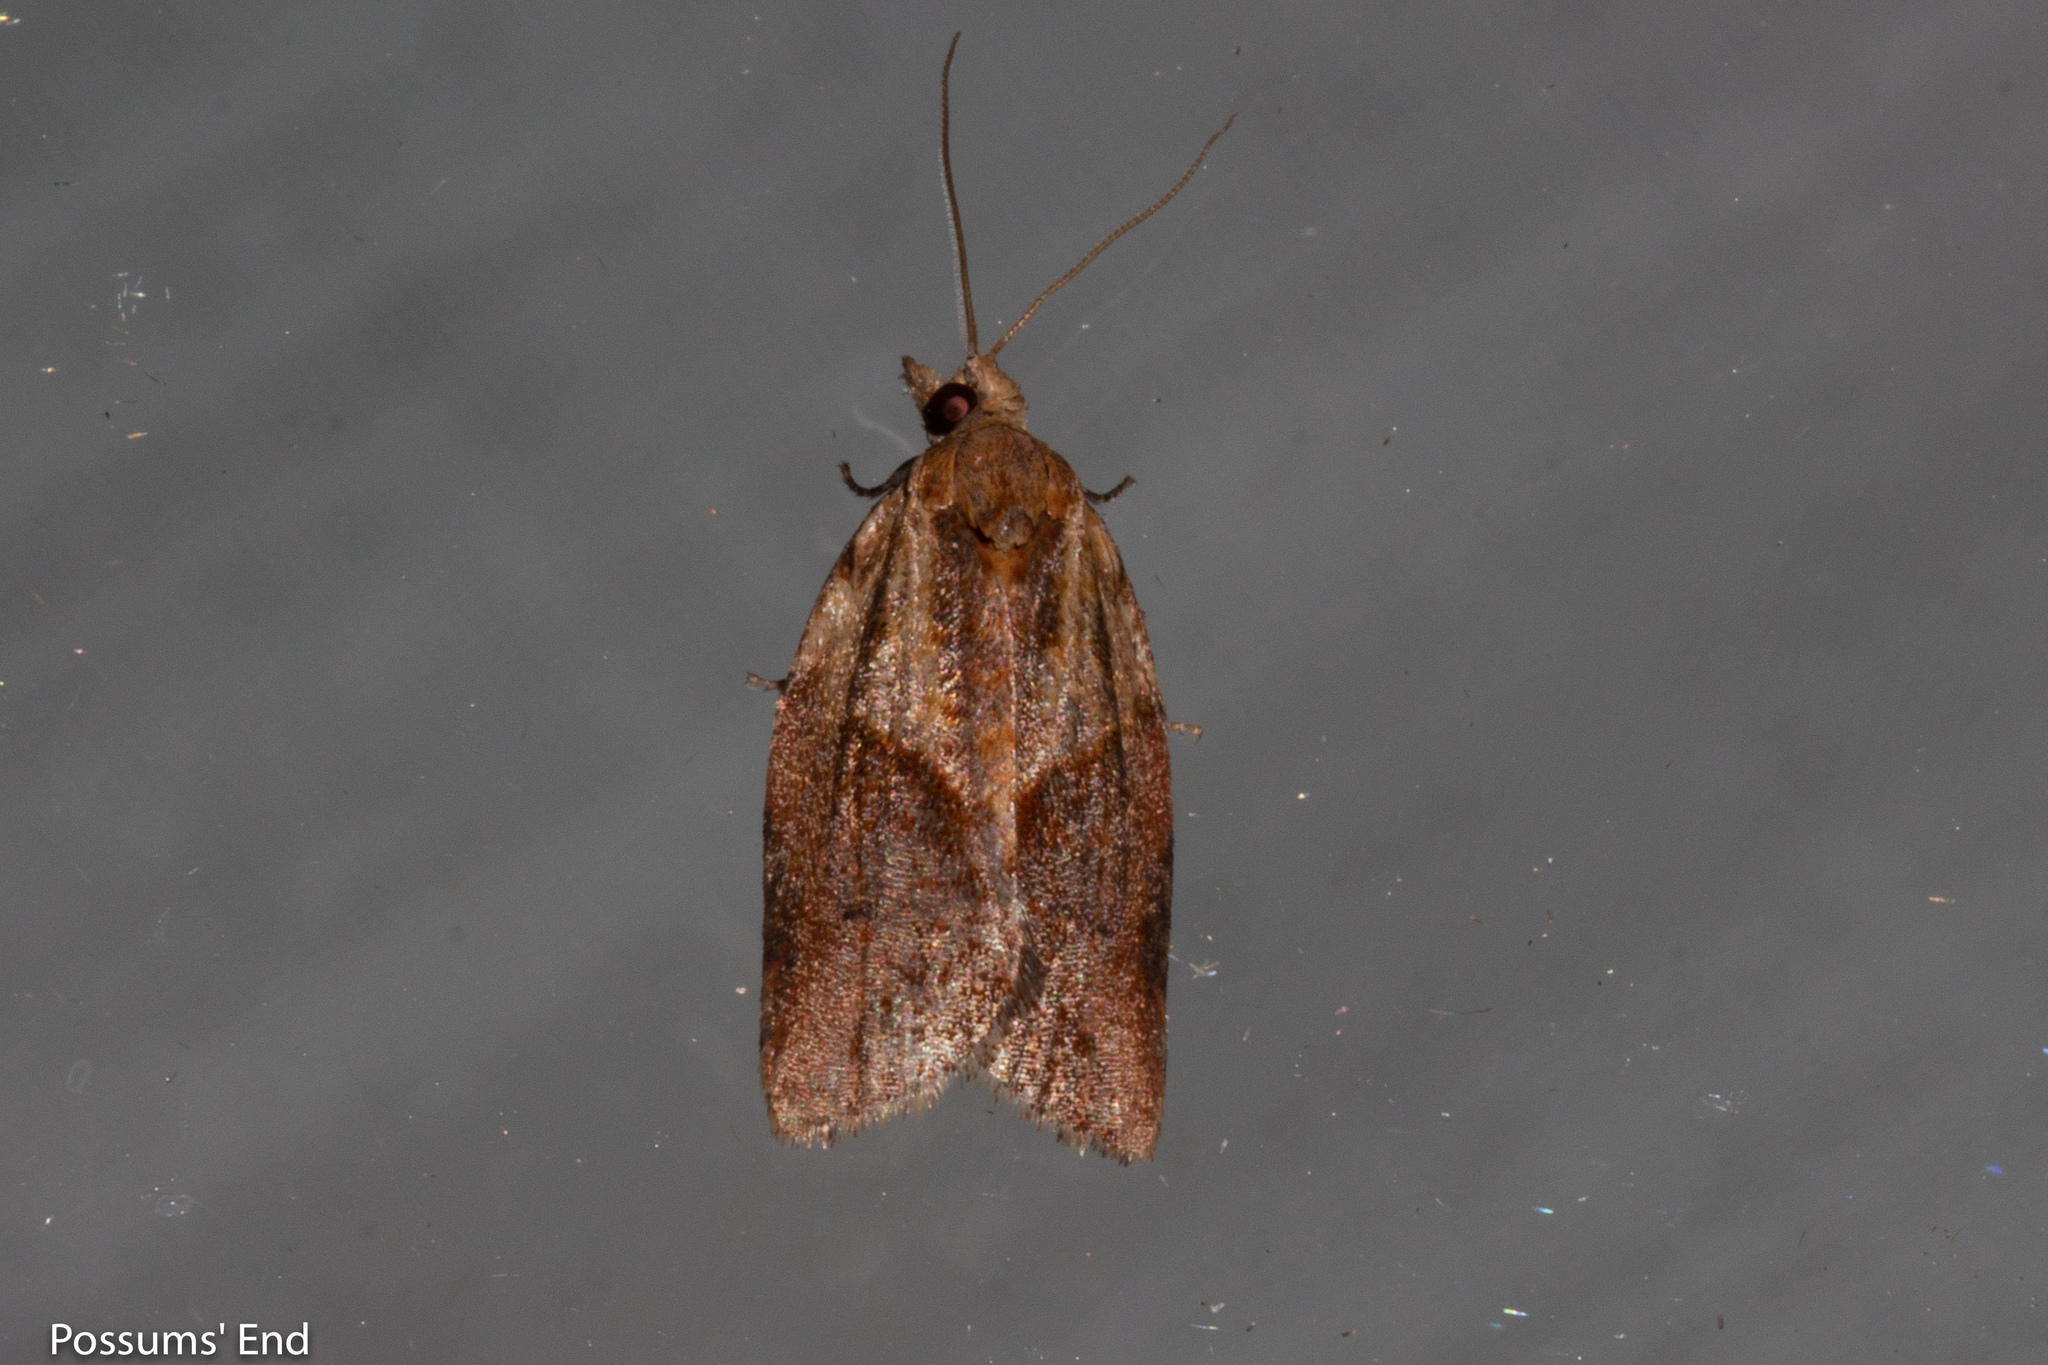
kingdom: Animalia
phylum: Arthropoda
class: Insecta
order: Lepidoptera
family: Tortricidae
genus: Epiphyas
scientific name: Epiphyas postvittana
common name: Light brown apple moth
